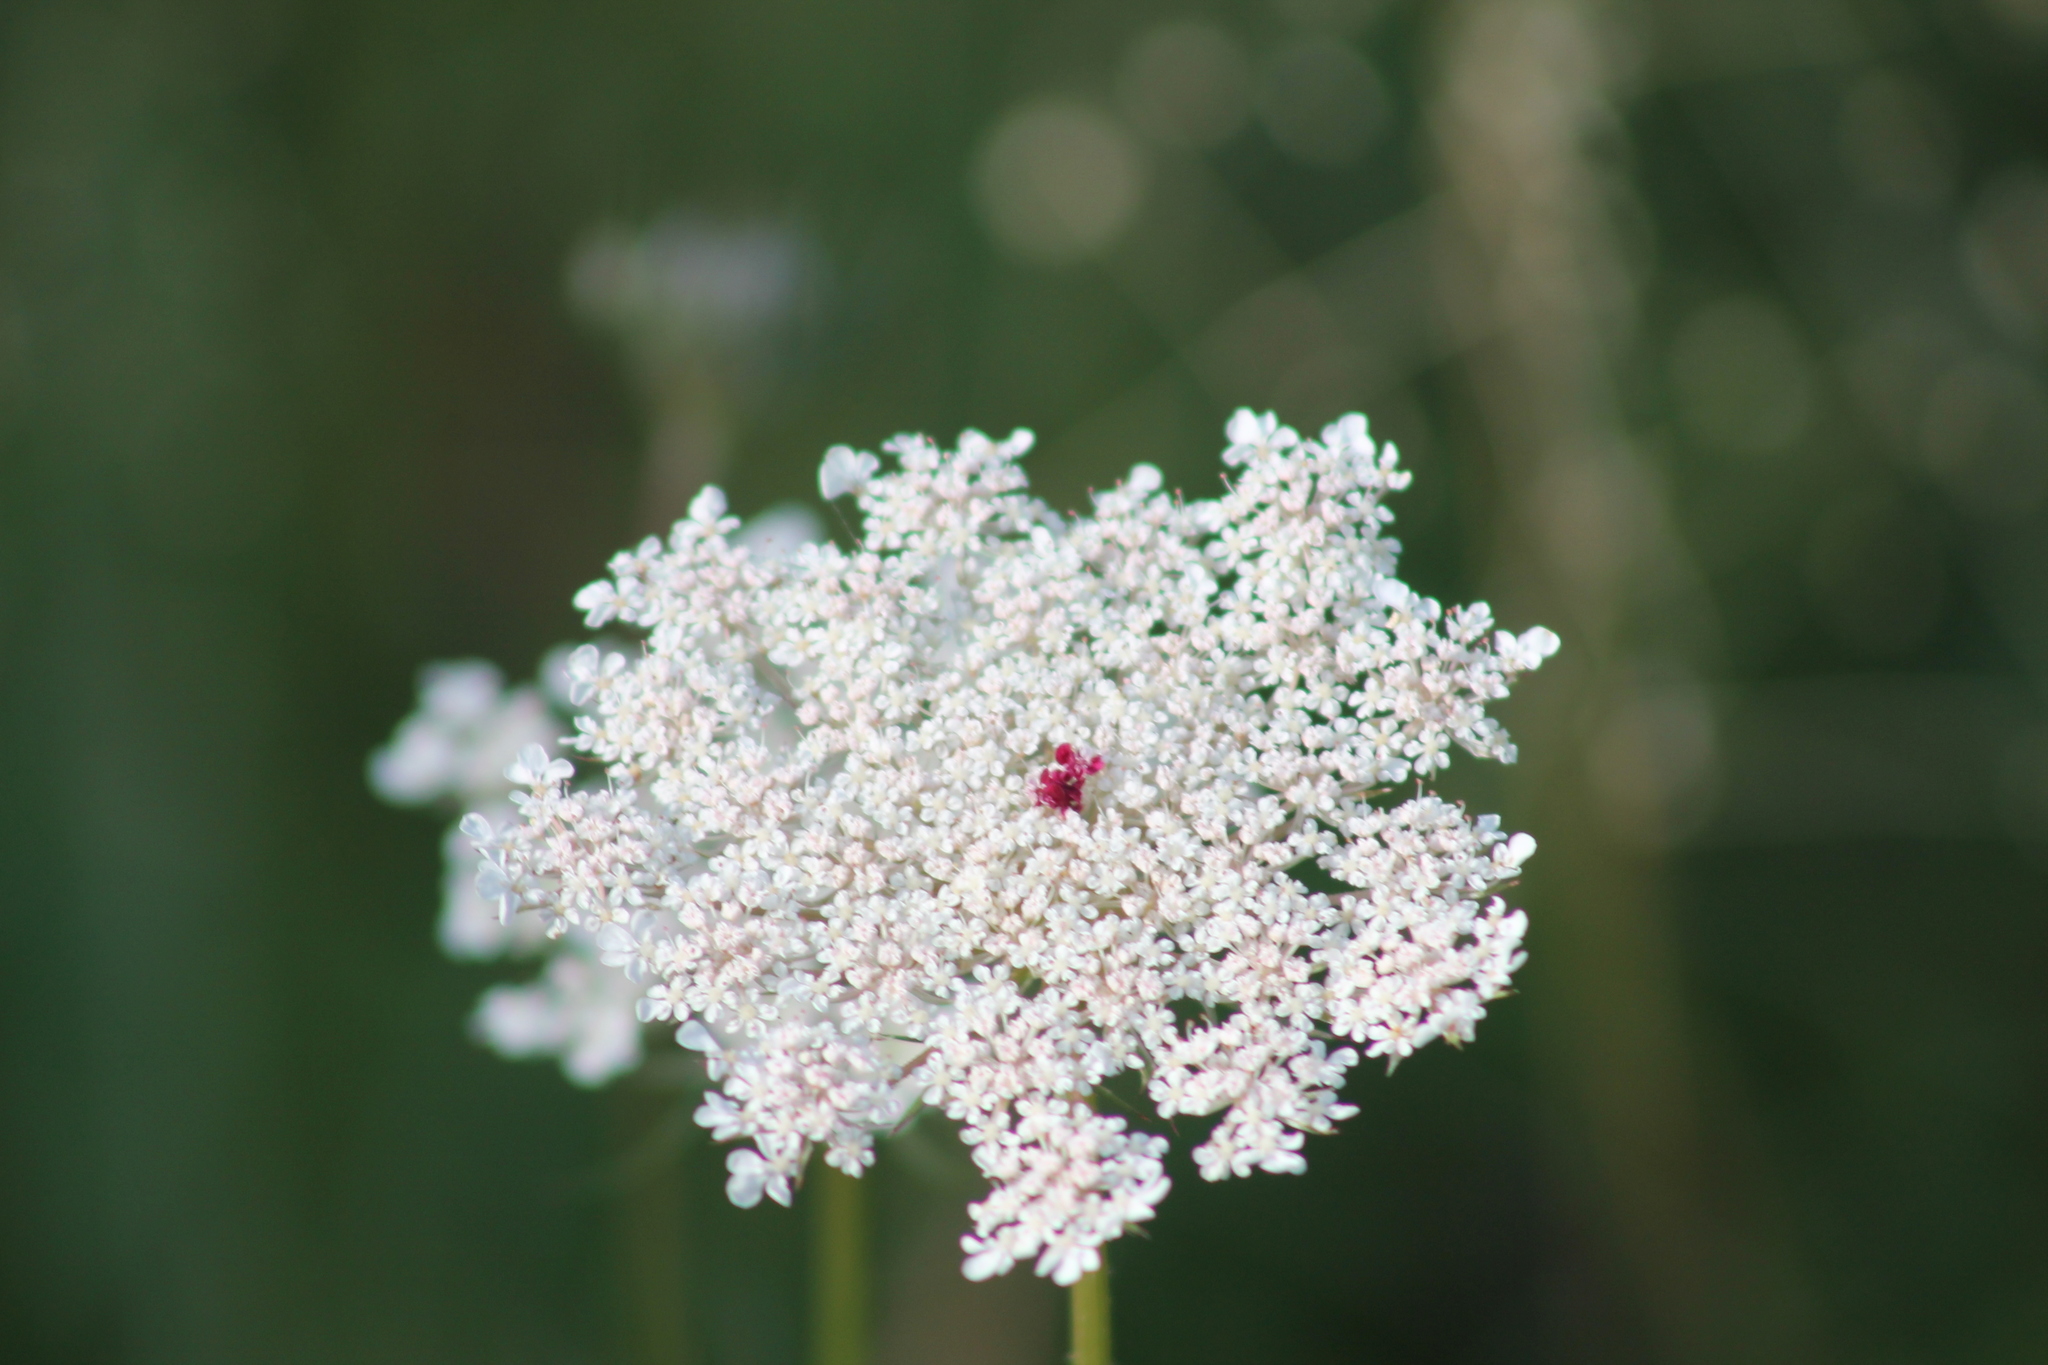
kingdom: Plantae
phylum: Tracheophyta
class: Magnoliopsida
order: Apiales
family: Apiaceae
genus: Daucus
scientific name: Daucus carota
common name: Wild carrot
